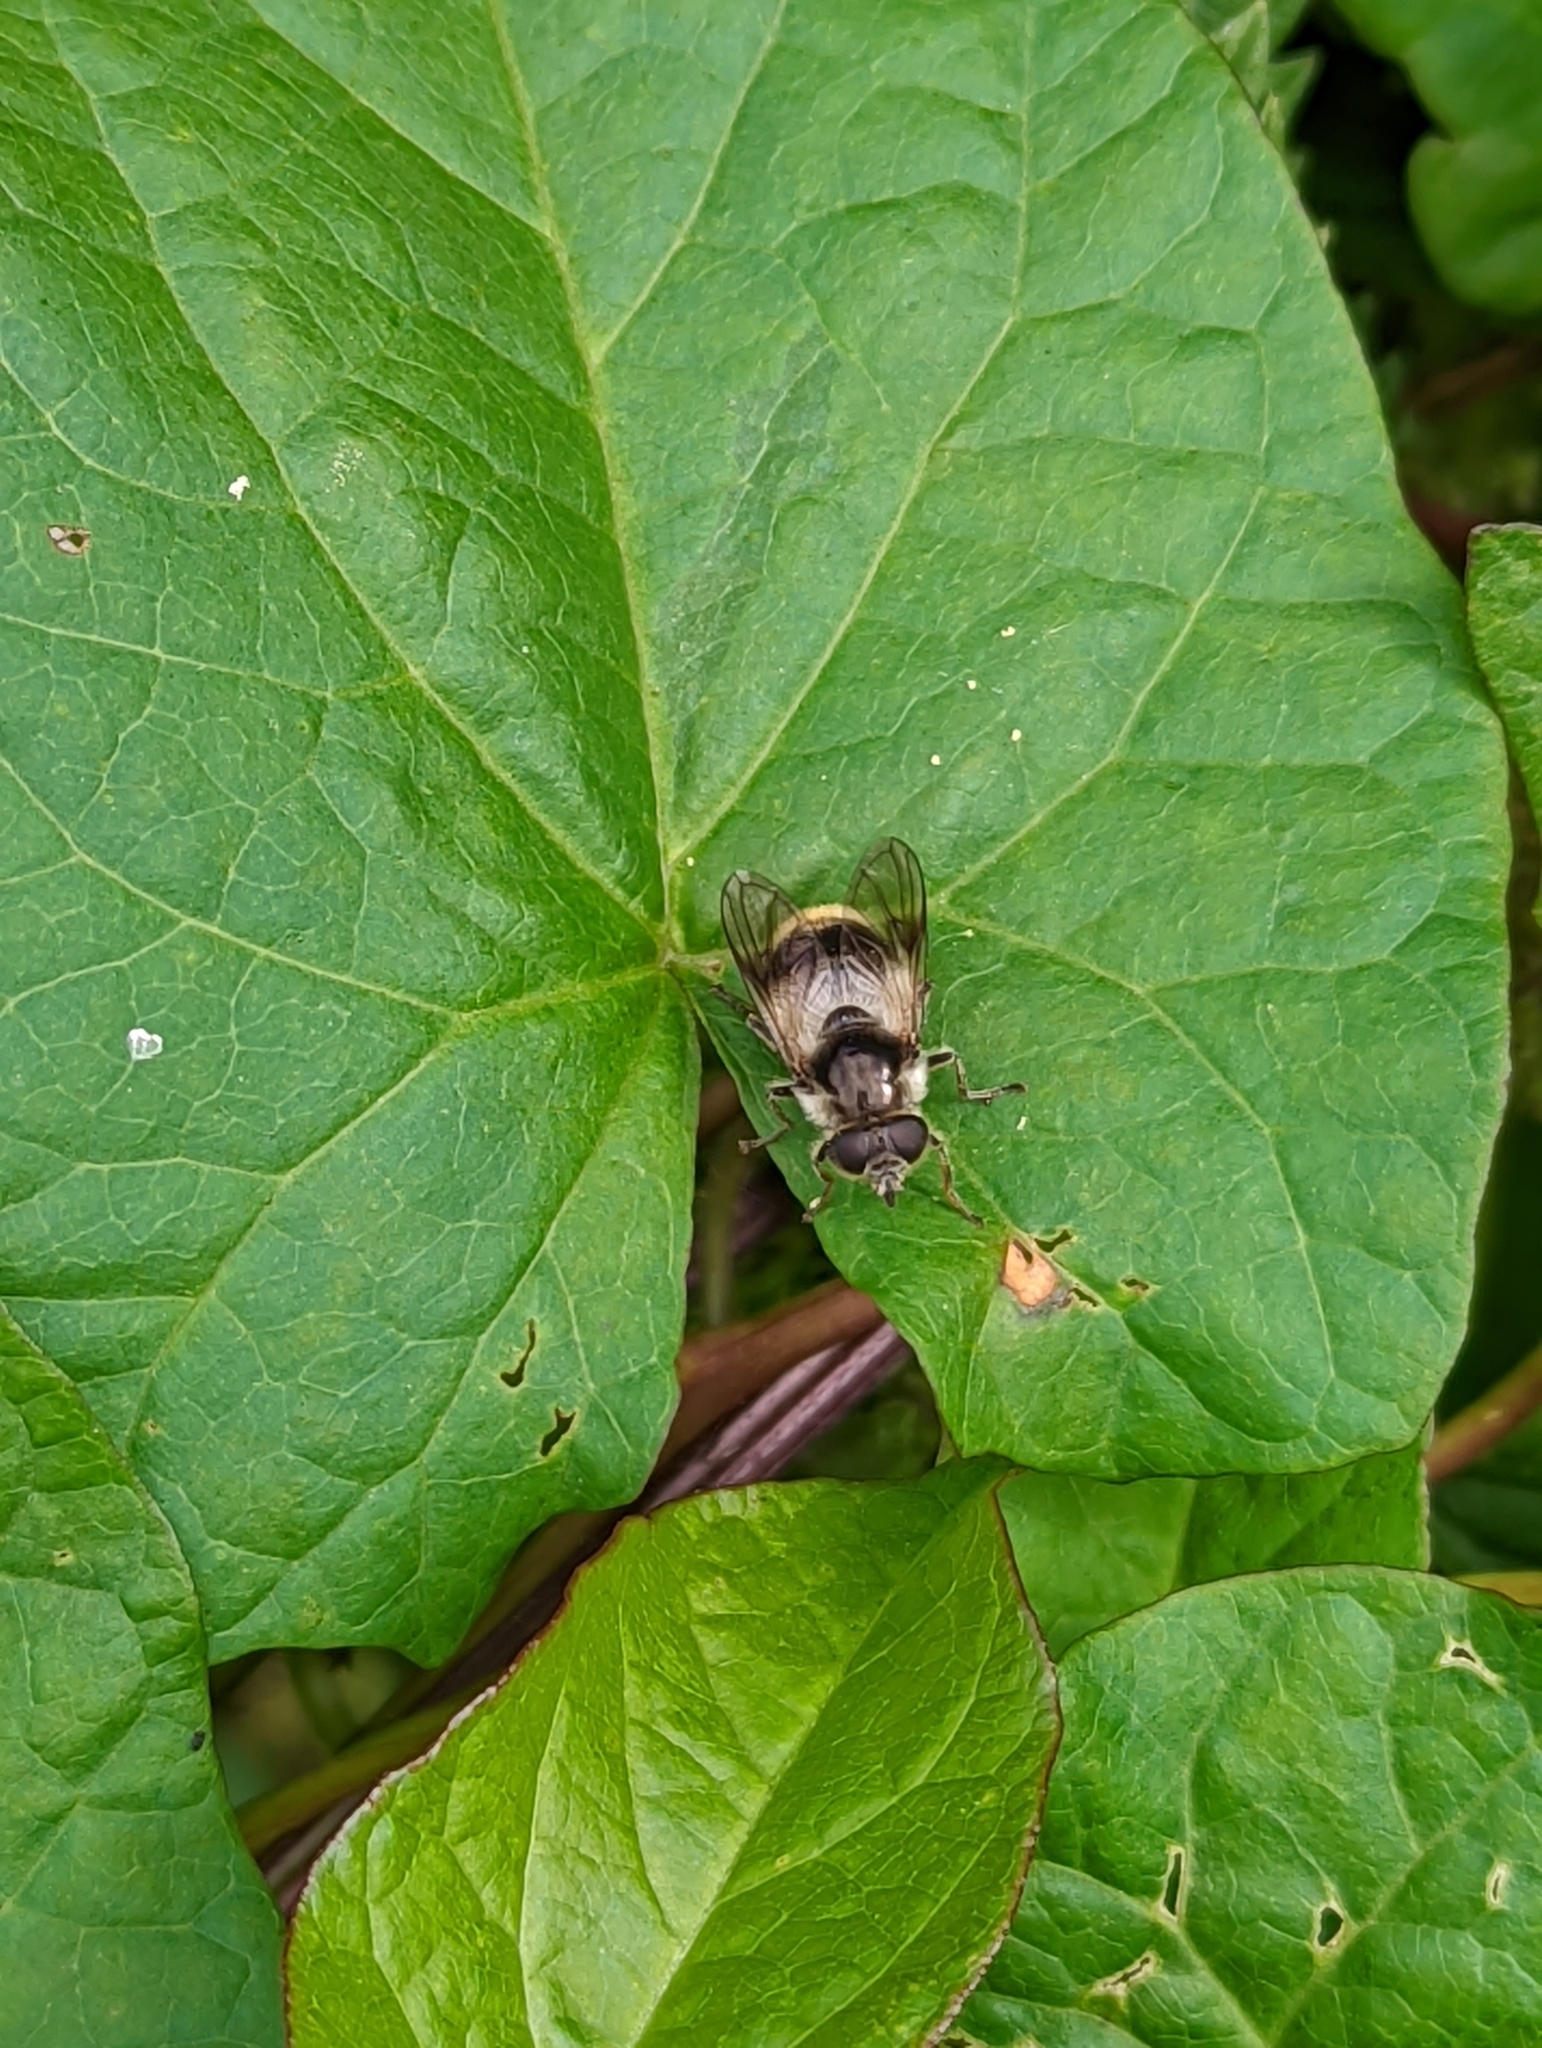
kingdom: Animalia
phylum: Arthropoda
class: Insecta
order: Diptera
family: Syrphidae
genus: Cheilosia
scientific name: Cheilosia illustrata
